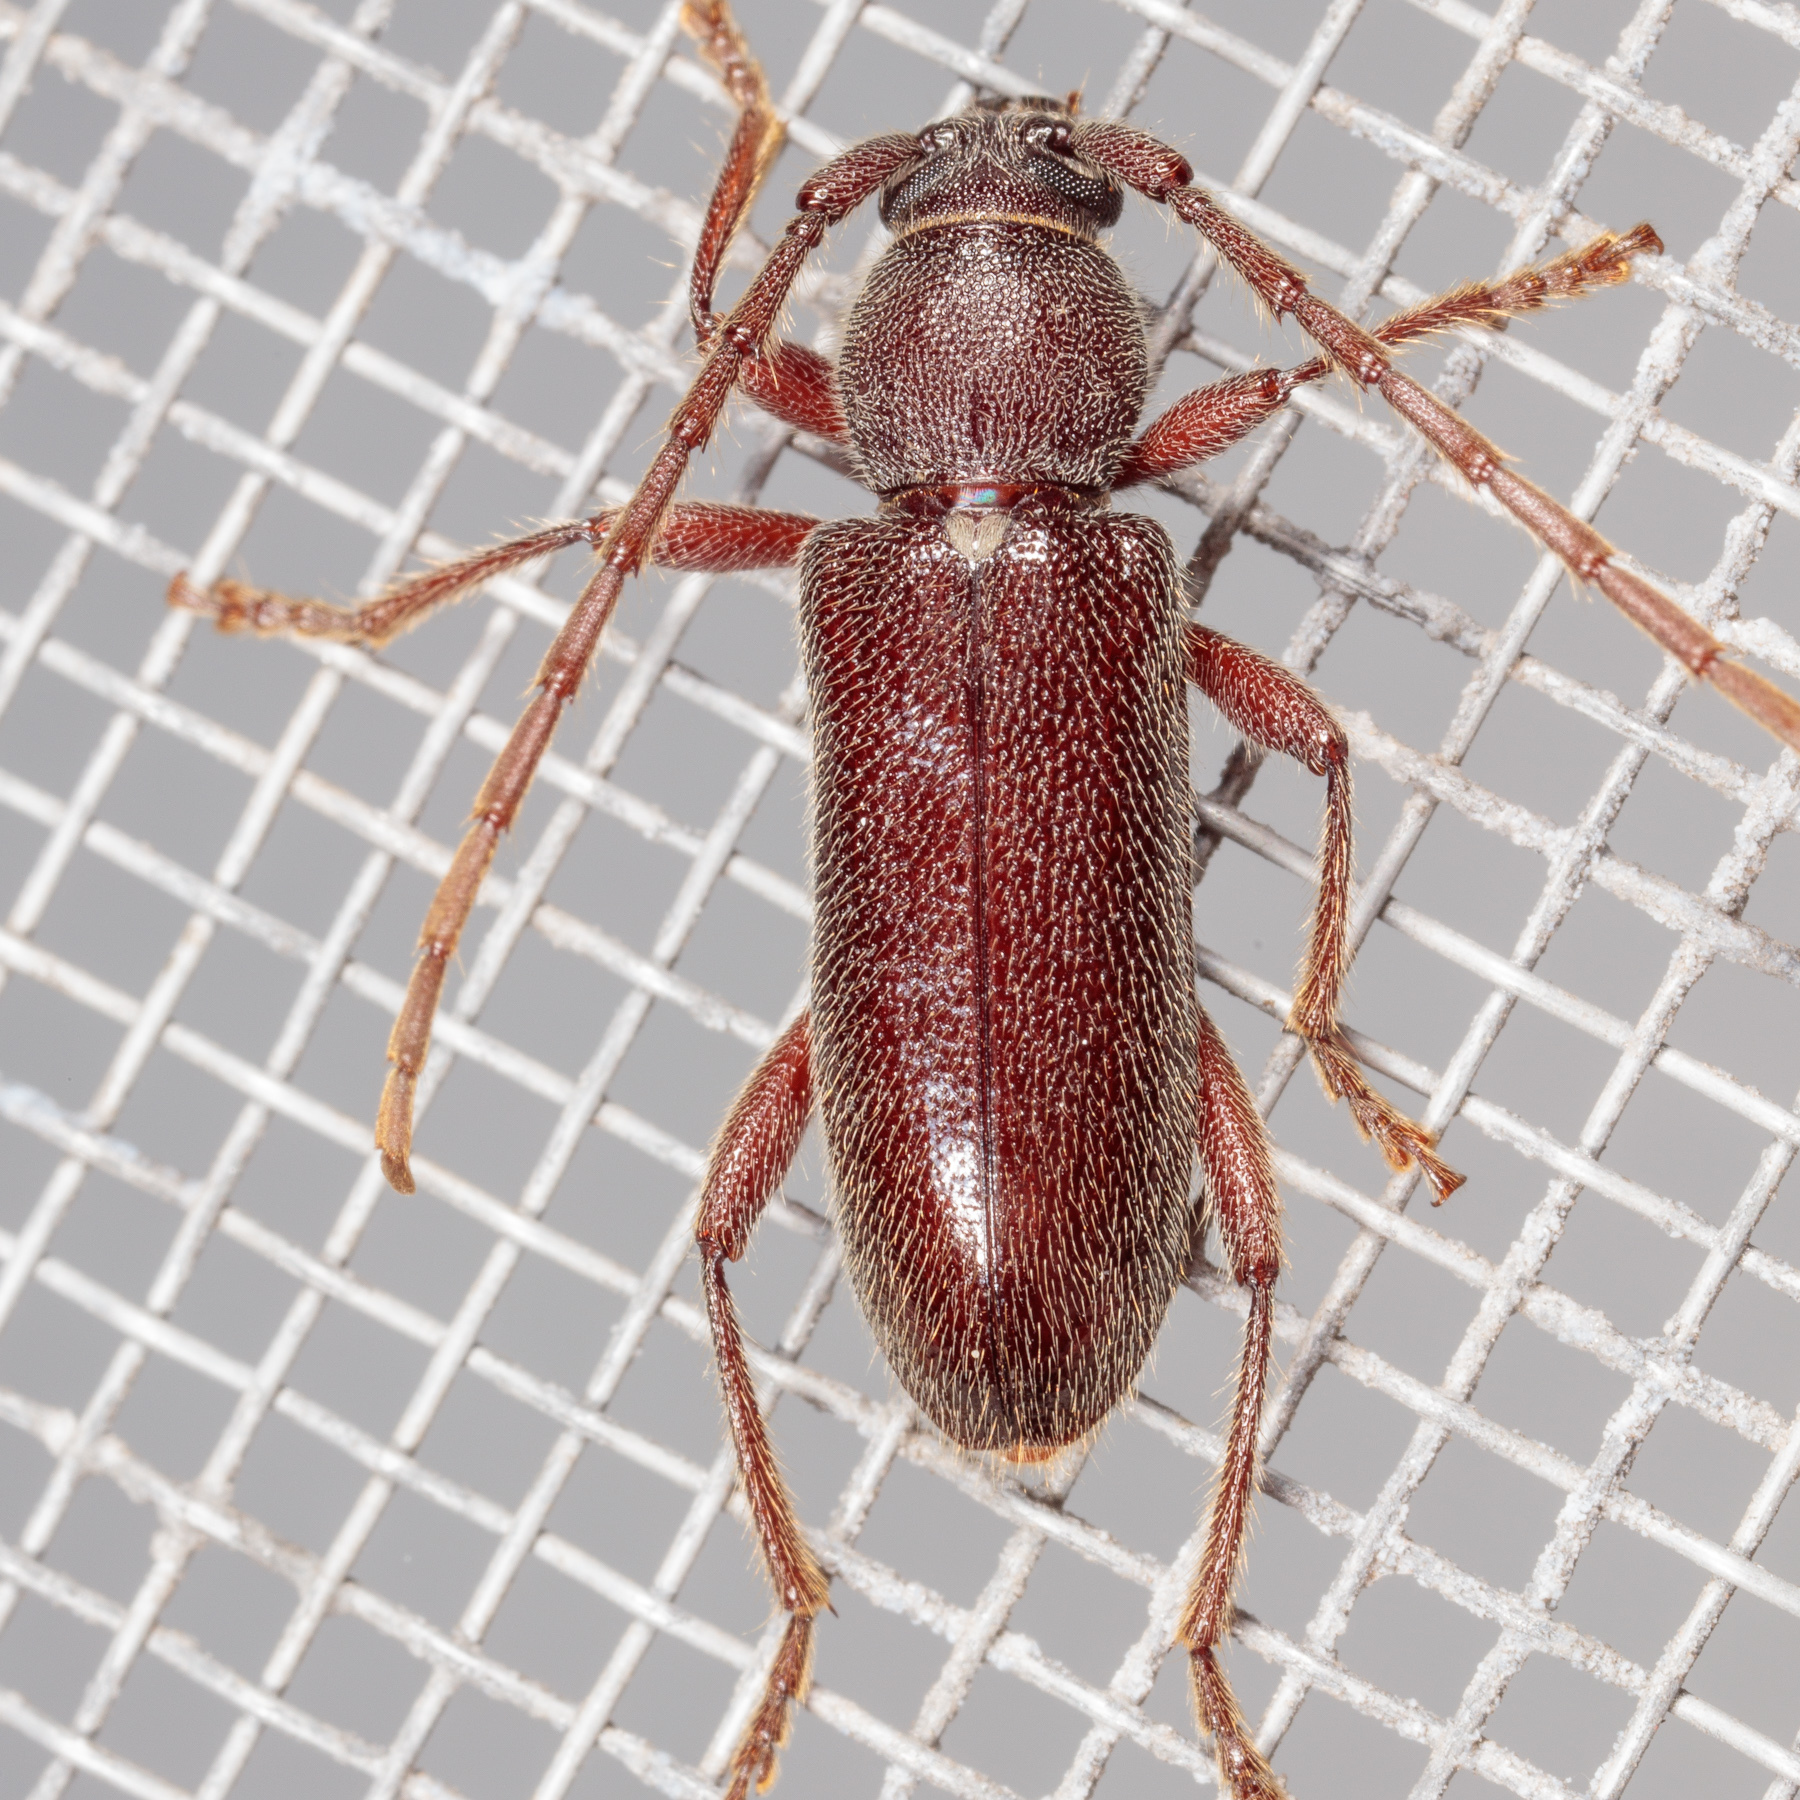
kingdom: Animalia
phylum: Arthropoda
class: Insecta
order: Coleoptera
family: Cerambycidae
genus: Anelaphus
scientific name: Anelaphus moestus
